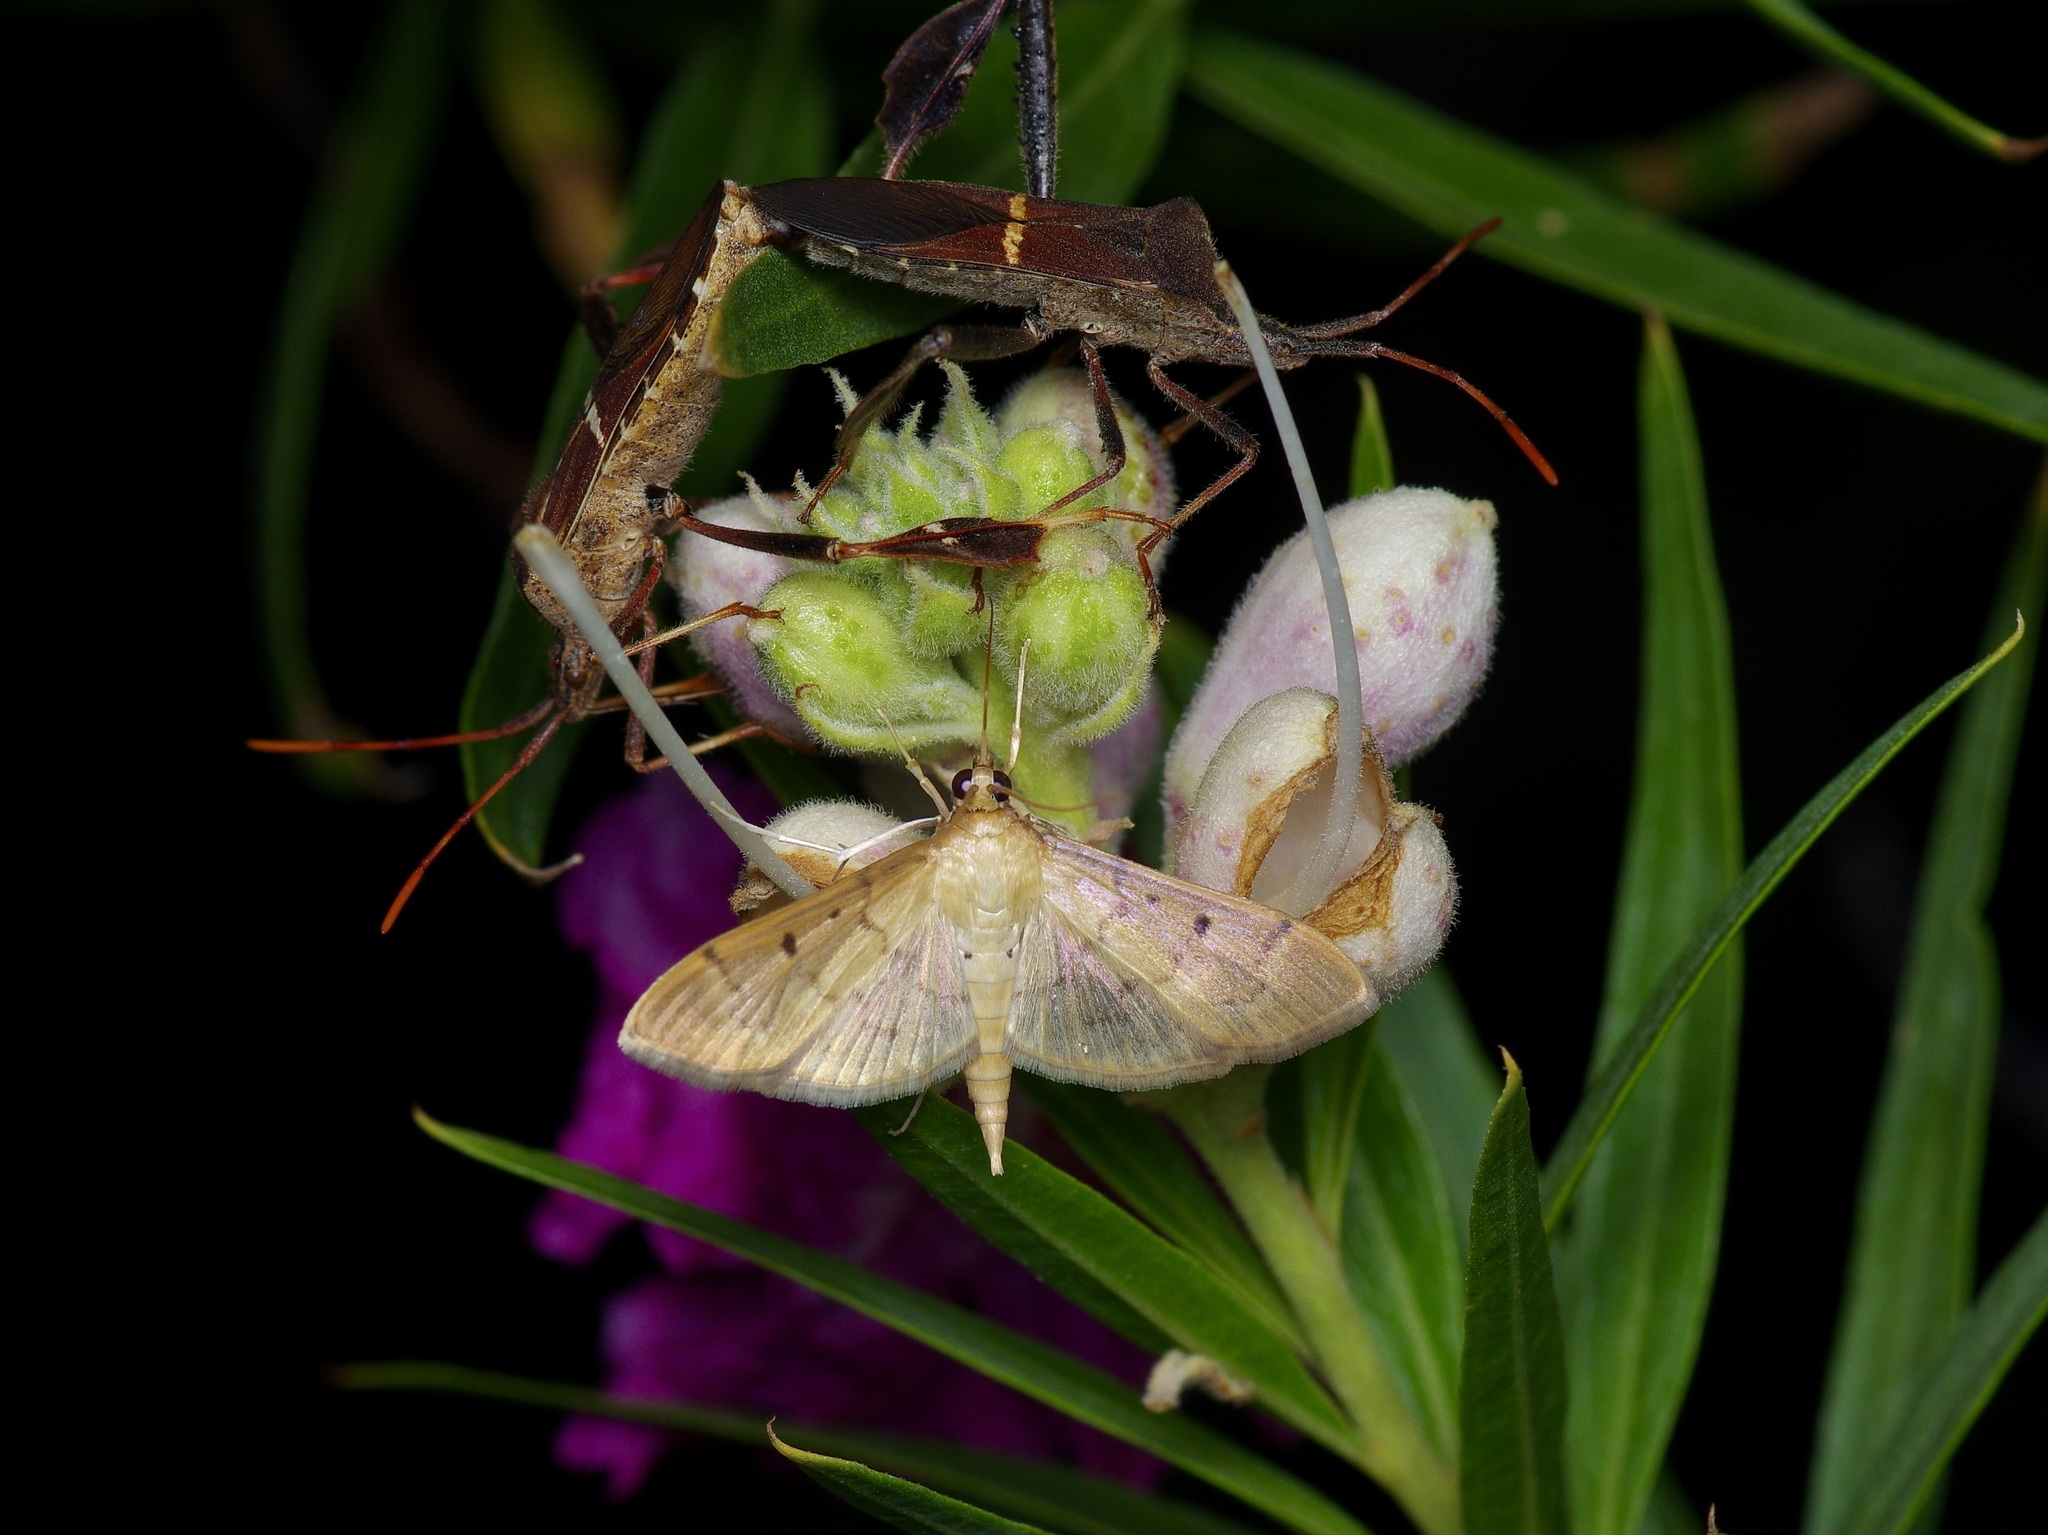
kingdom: Animalia
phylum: Arthropoda
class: Insecta
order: Lepidoptera
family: Crambidae
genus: Herpetogramma
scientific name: Herpetogramma bipunctalis
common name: Southern beet webworm
